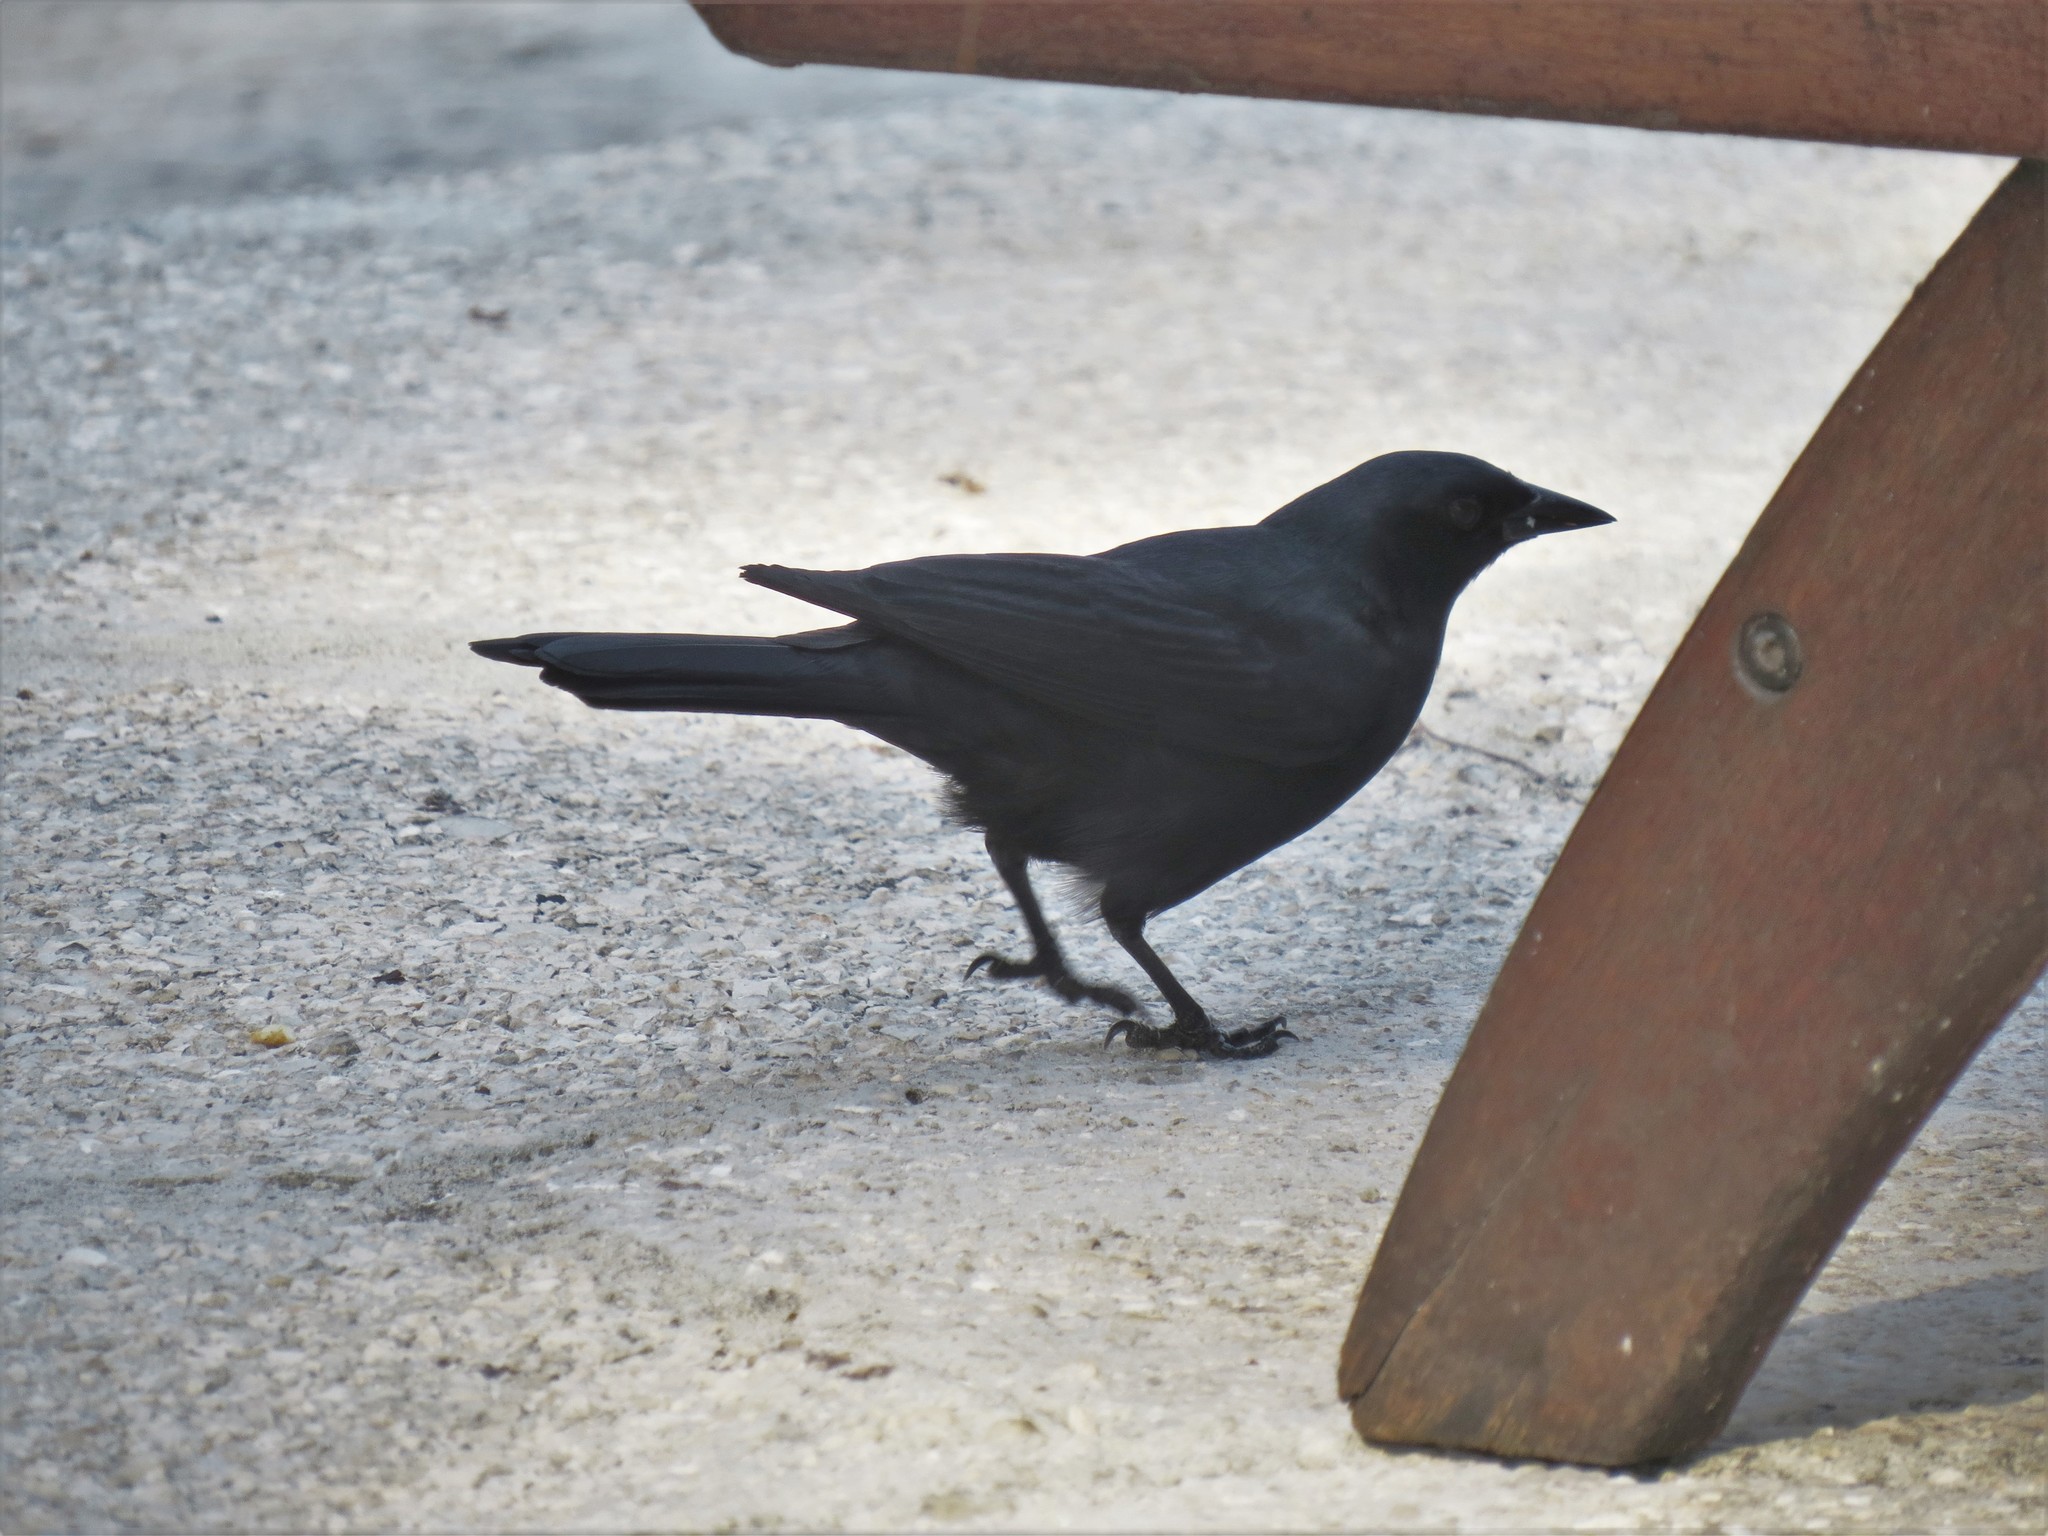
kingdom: Animalia
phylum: Chordata
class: Aves
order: Passeriformes
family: Icteridae
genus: Dives
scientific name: Dives atroviolaceus
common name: Cuban blackbird
